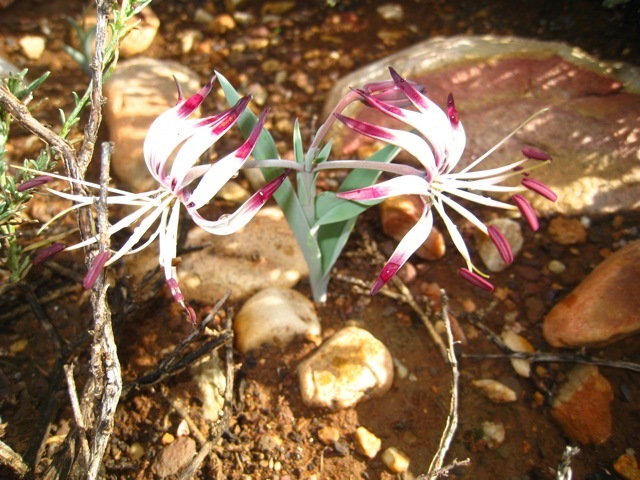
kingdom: Plantae
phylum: Tracheophyta
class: Liliopsida
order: Liliales
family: Colchicaceae
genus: Ornithoglossum
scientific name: Ornithoglossum undulatum
